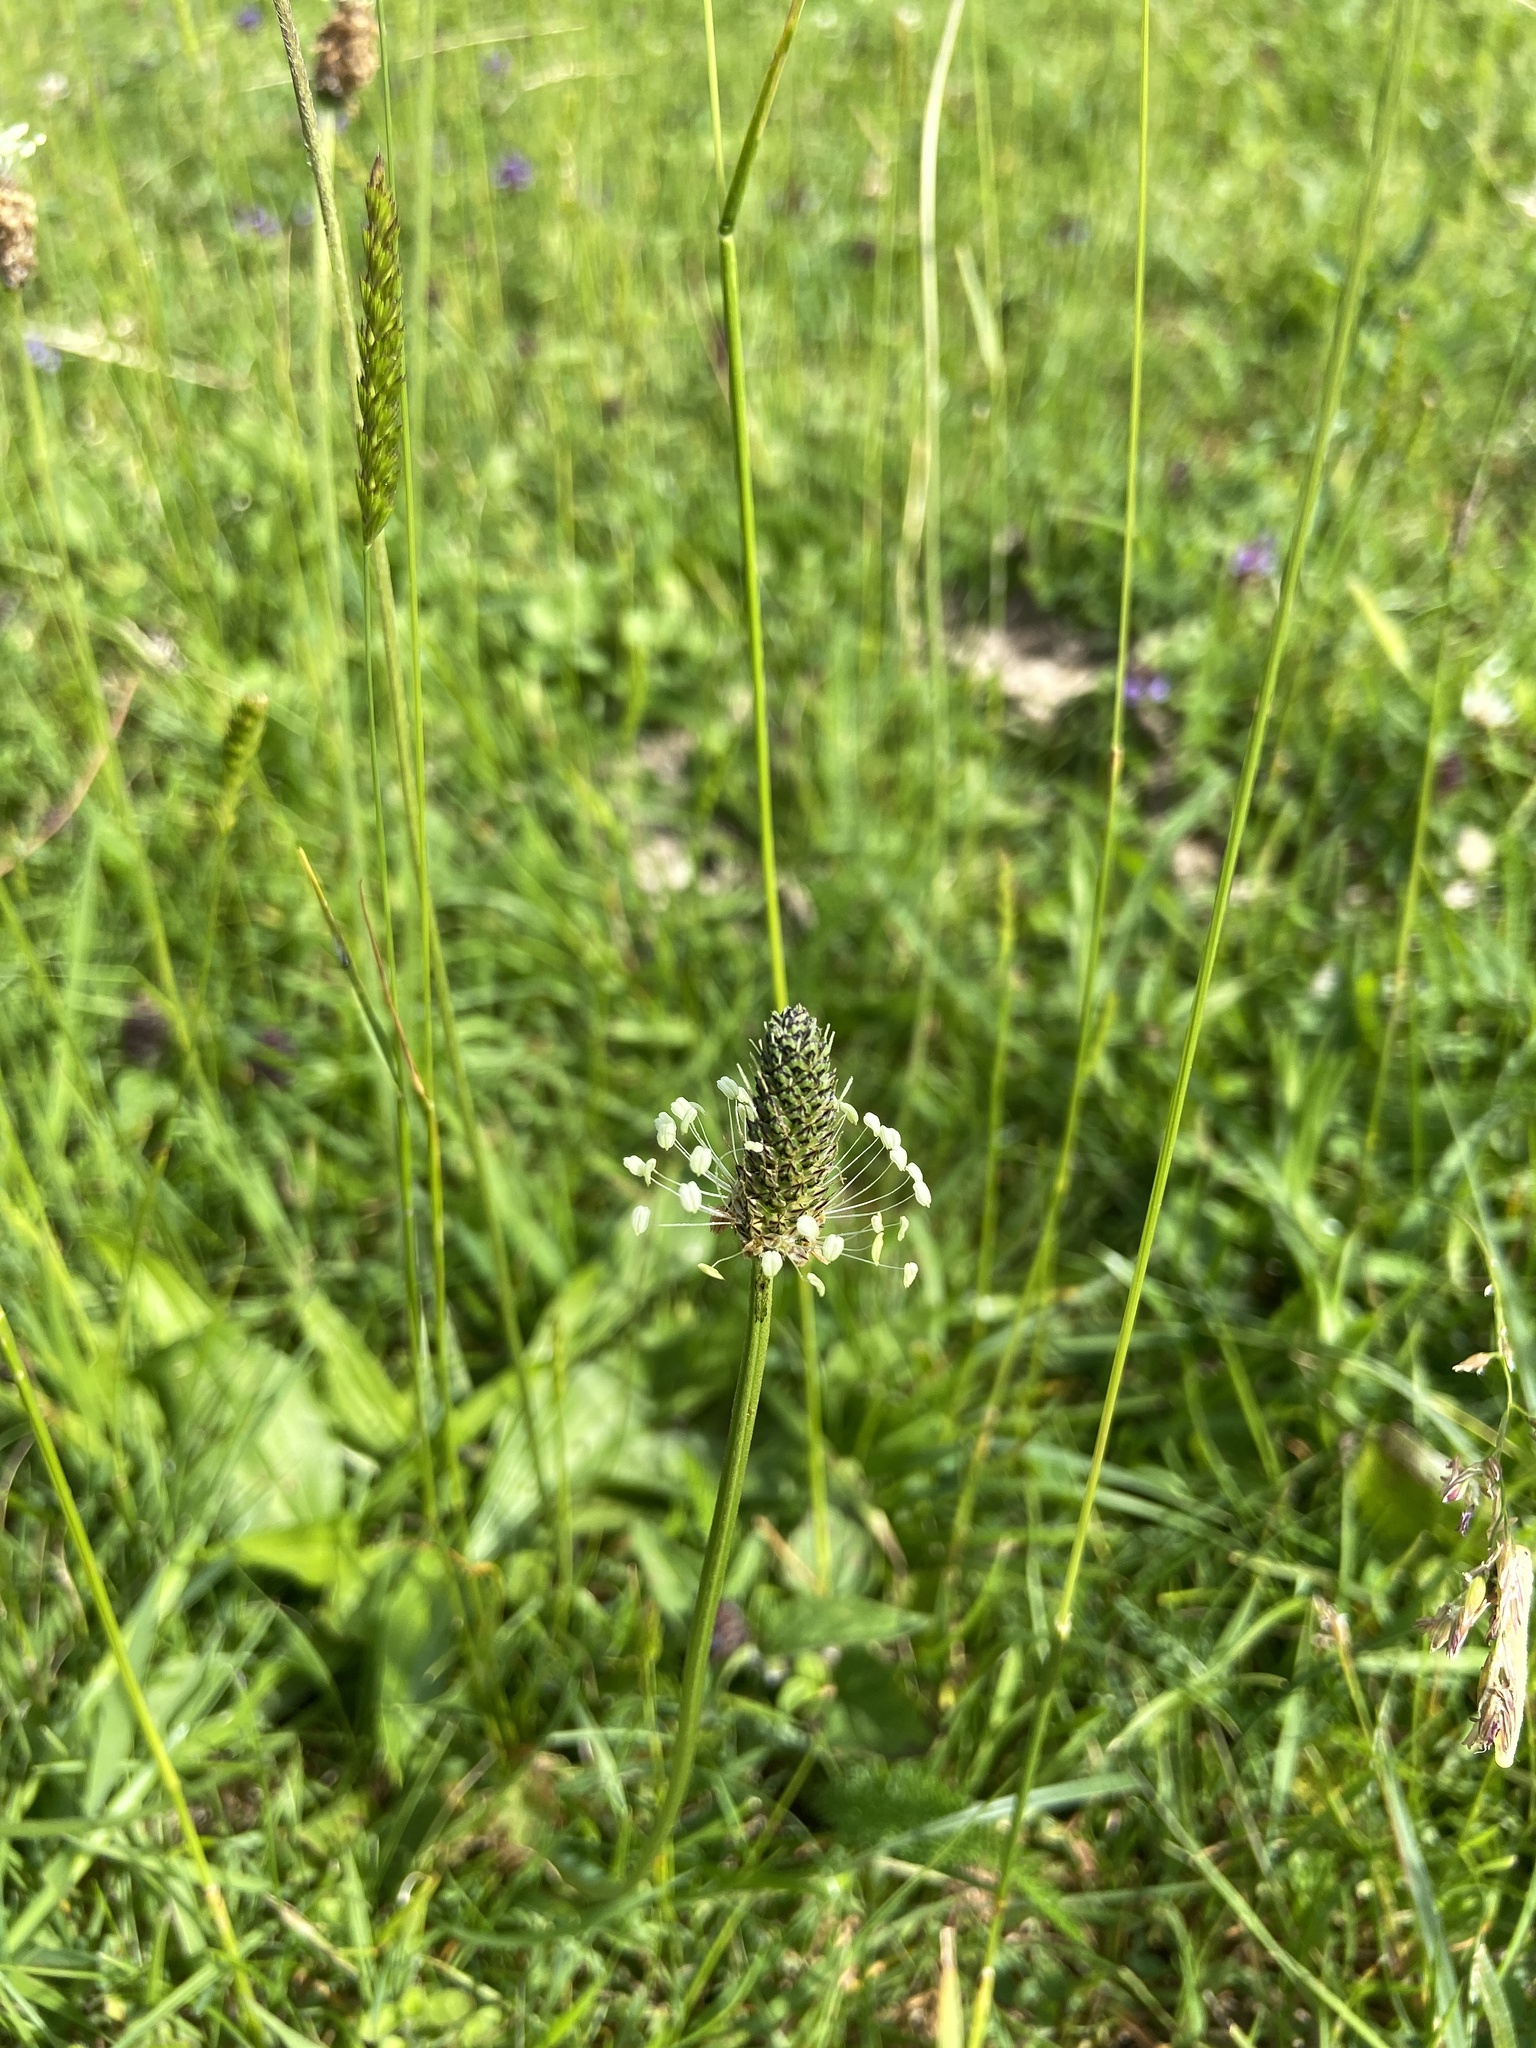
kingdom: Plantae
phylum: Tracheophyta
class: Magnoliopsida
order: Lamiales
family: Plantaginaceae
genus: Plantago
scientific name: Plantago lanceolata
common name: Ribwort plantain
